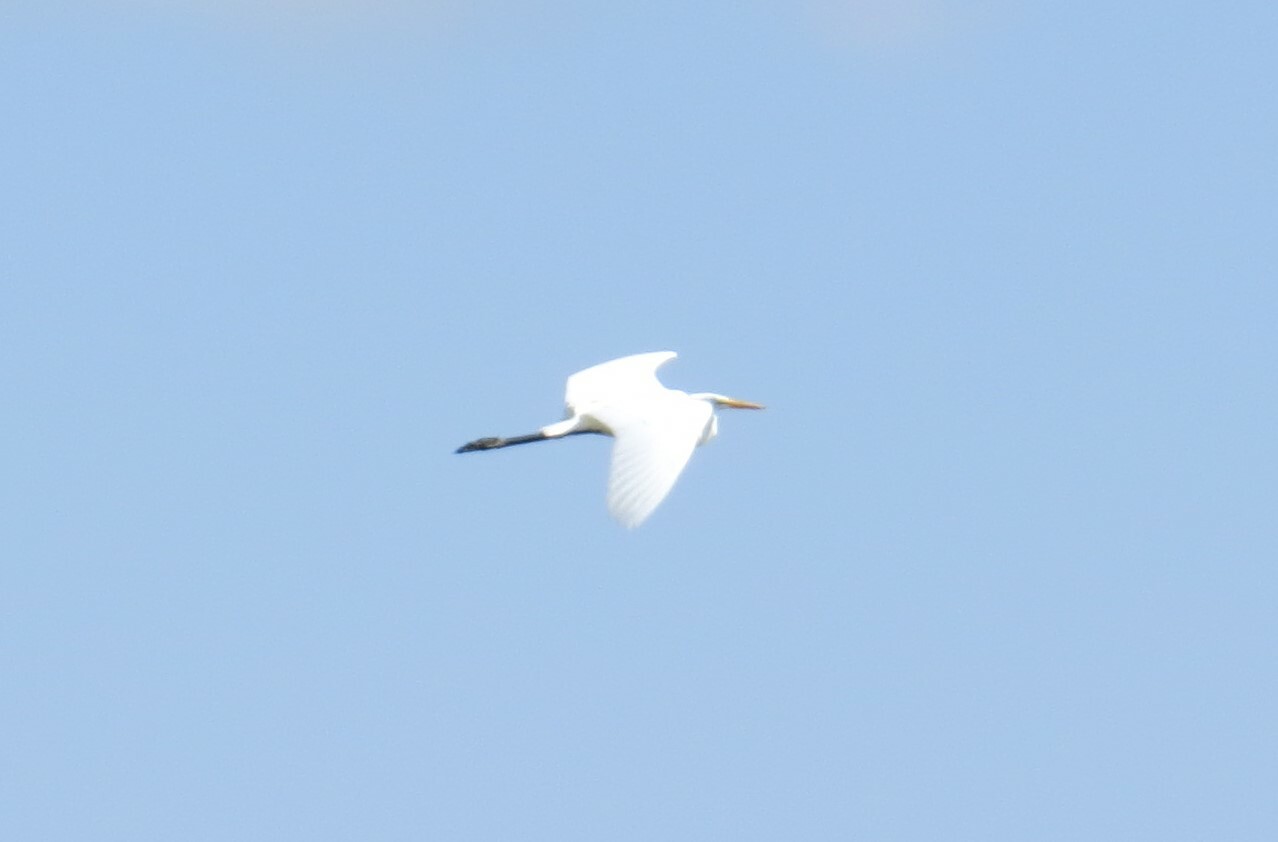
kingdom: Animalia
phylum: Chordata
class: Aves
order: Pelecaniformes
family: Ardeidae
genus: Ardea
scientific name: Ardea alba
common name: Great egret
